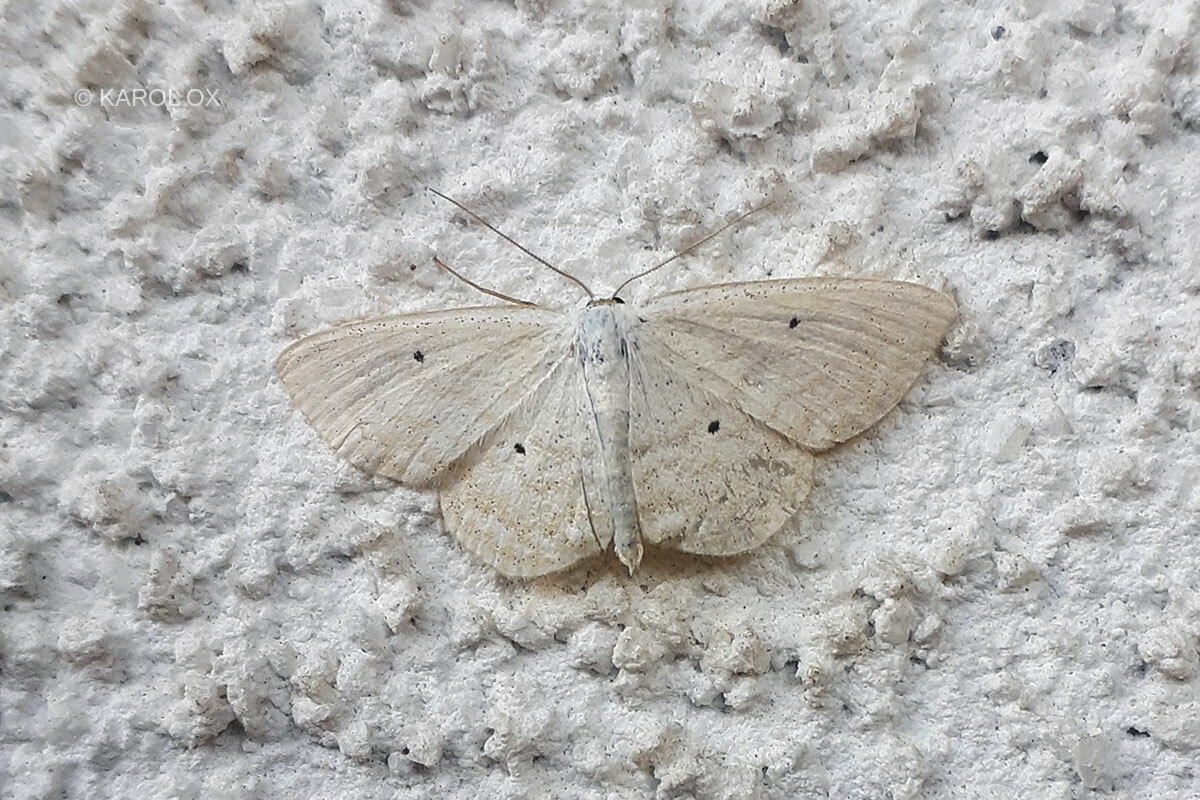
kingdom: Animalia
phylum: Arthropoda
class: Insecta
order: Lepidoptera
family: Geometridae
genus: Scopula
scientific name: Scopula immutata
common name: Lesser cream wave
